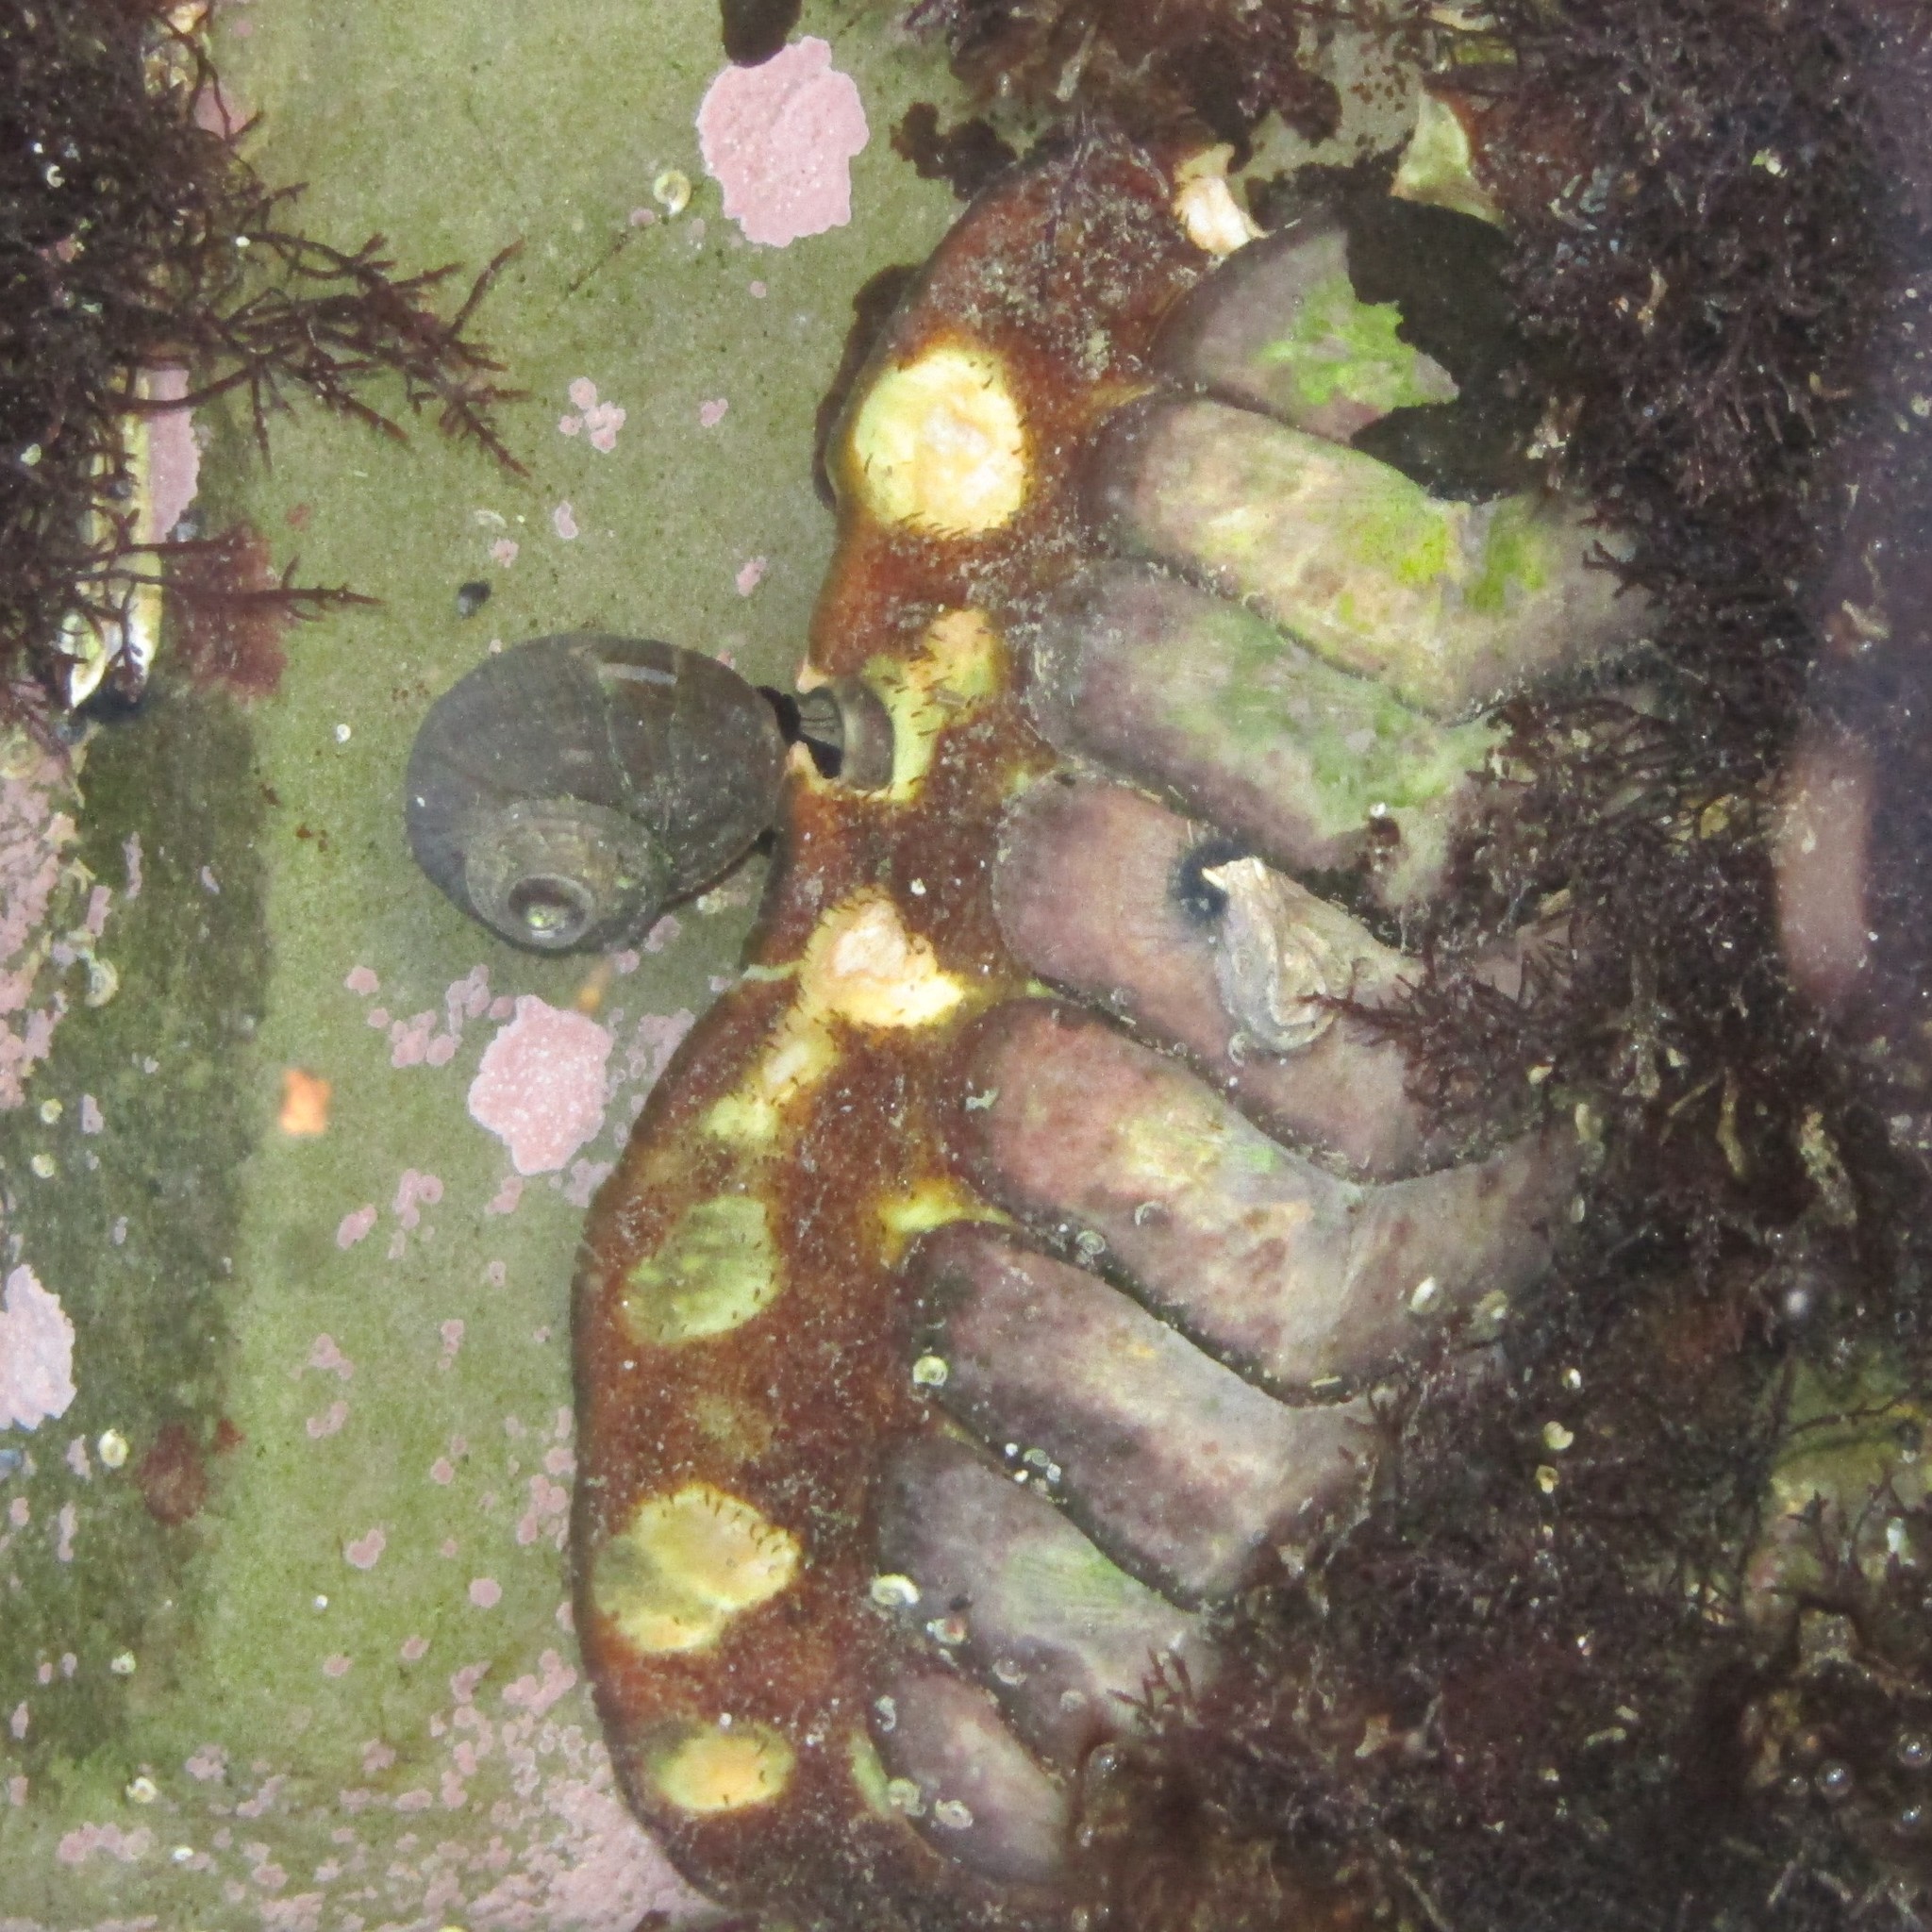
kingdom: Animalia
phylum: Mollusca
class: Polyplacophora
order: Callochitonida
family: Callochitonidae
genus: Eudoxochiton
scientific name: Eudoxochiton nobilis
